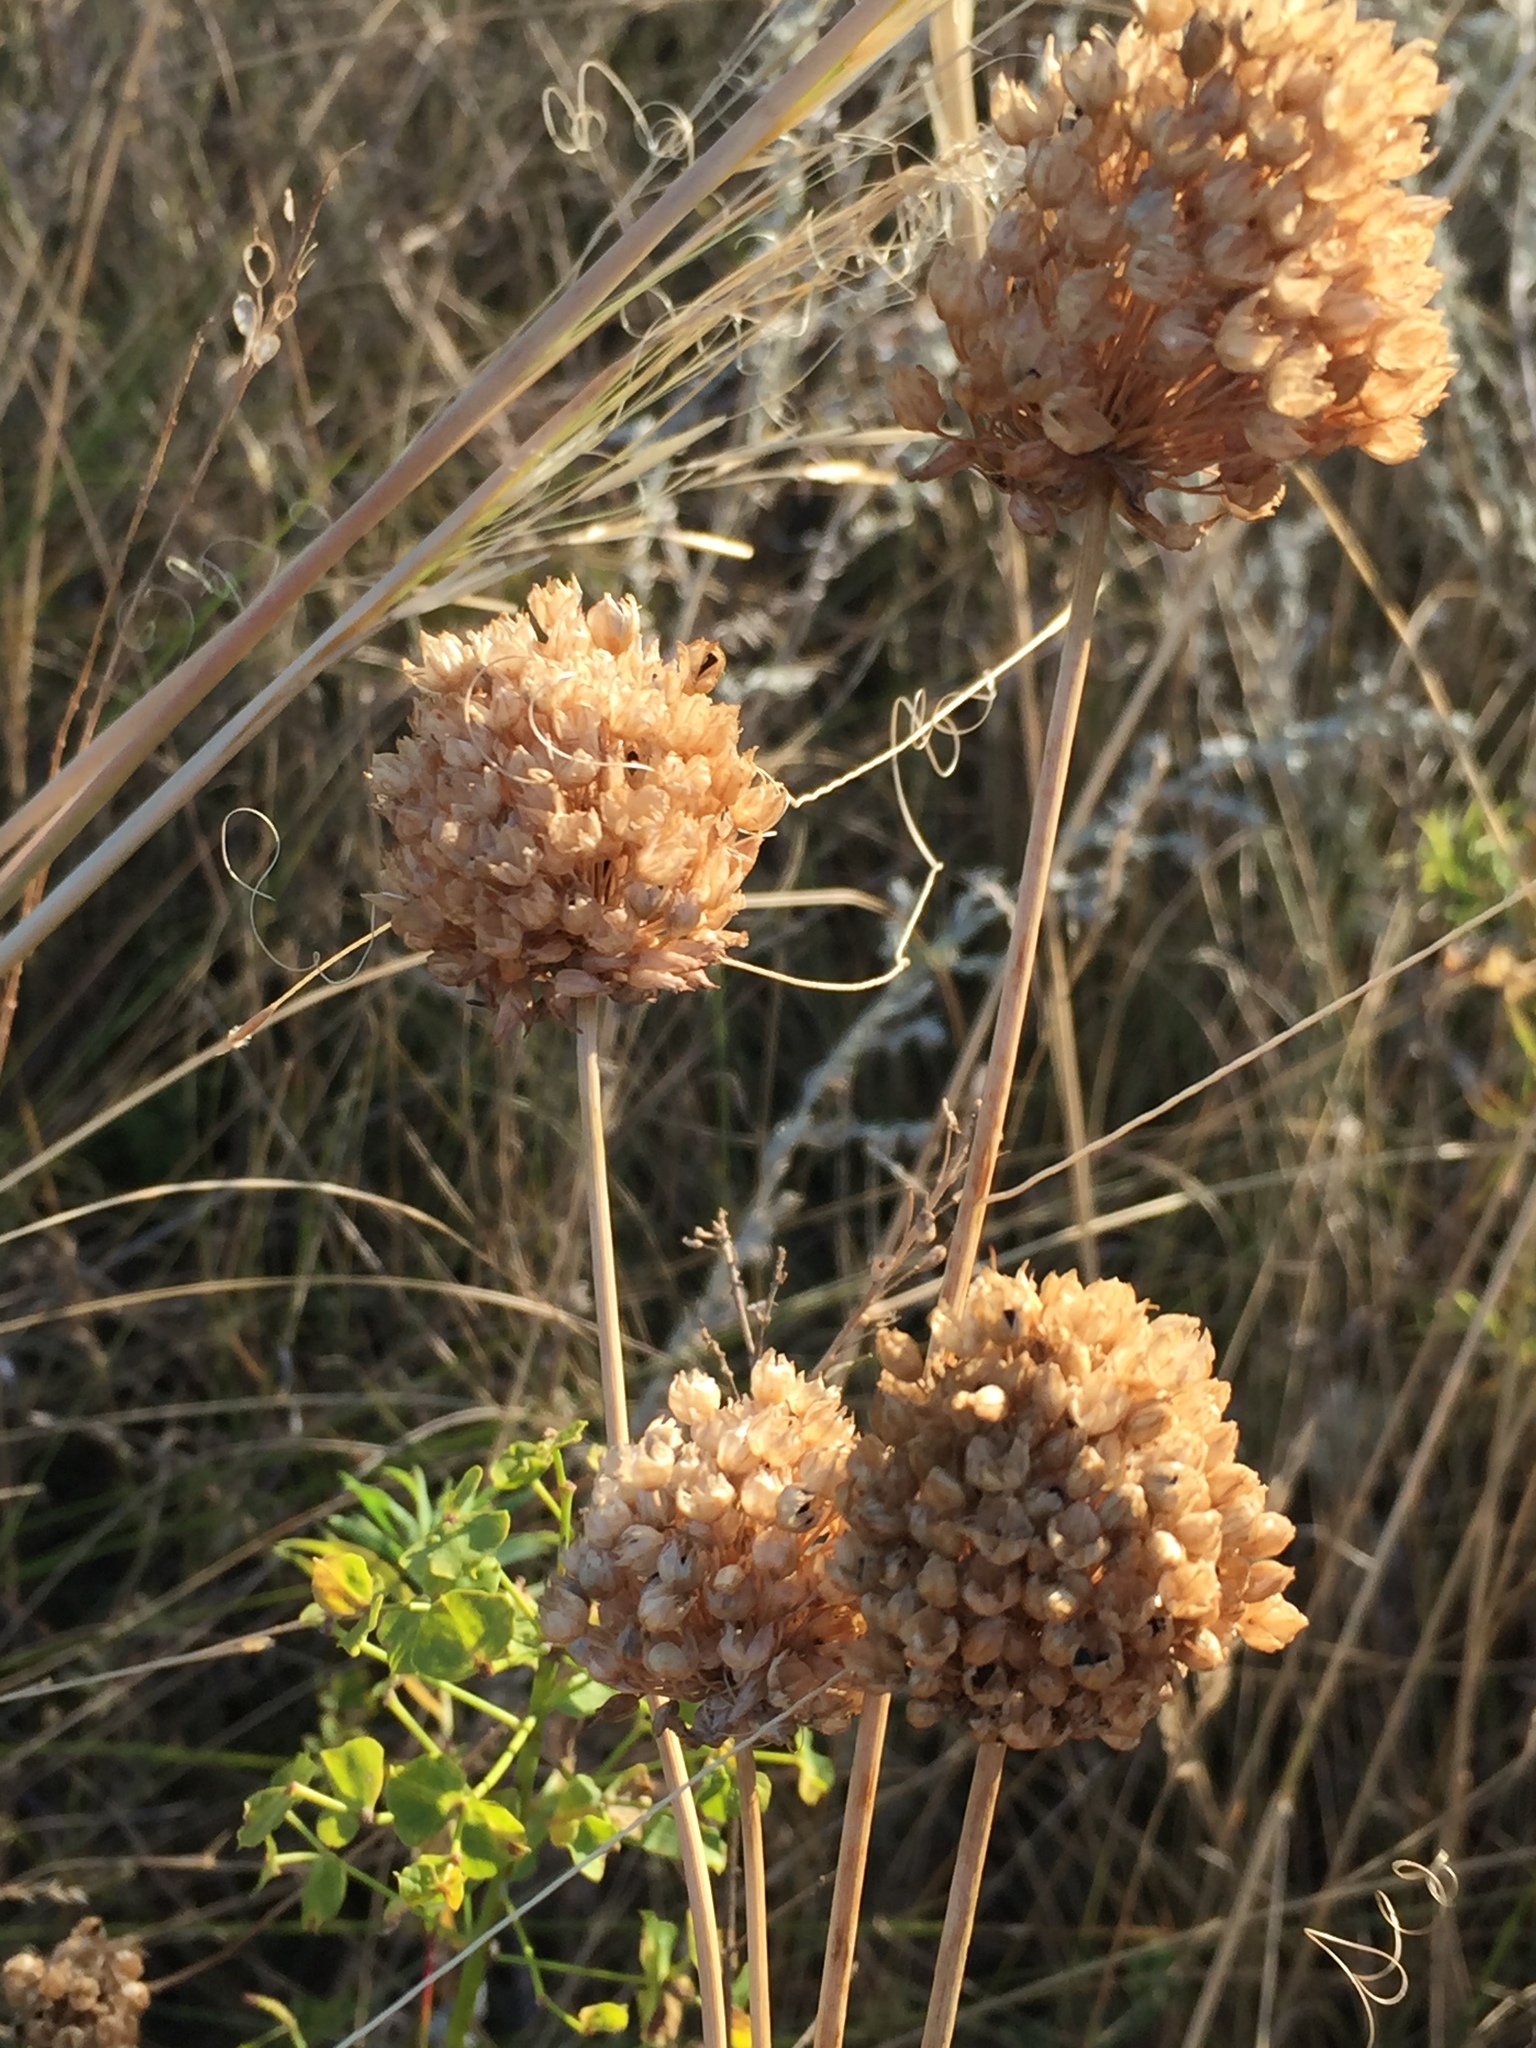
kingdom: Plantae
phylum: Tracheophyta
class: Liliopsida
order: Asparagales
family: Amaryllidaceae
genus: Allium
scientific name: Allium rotundum
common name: Sand leek
